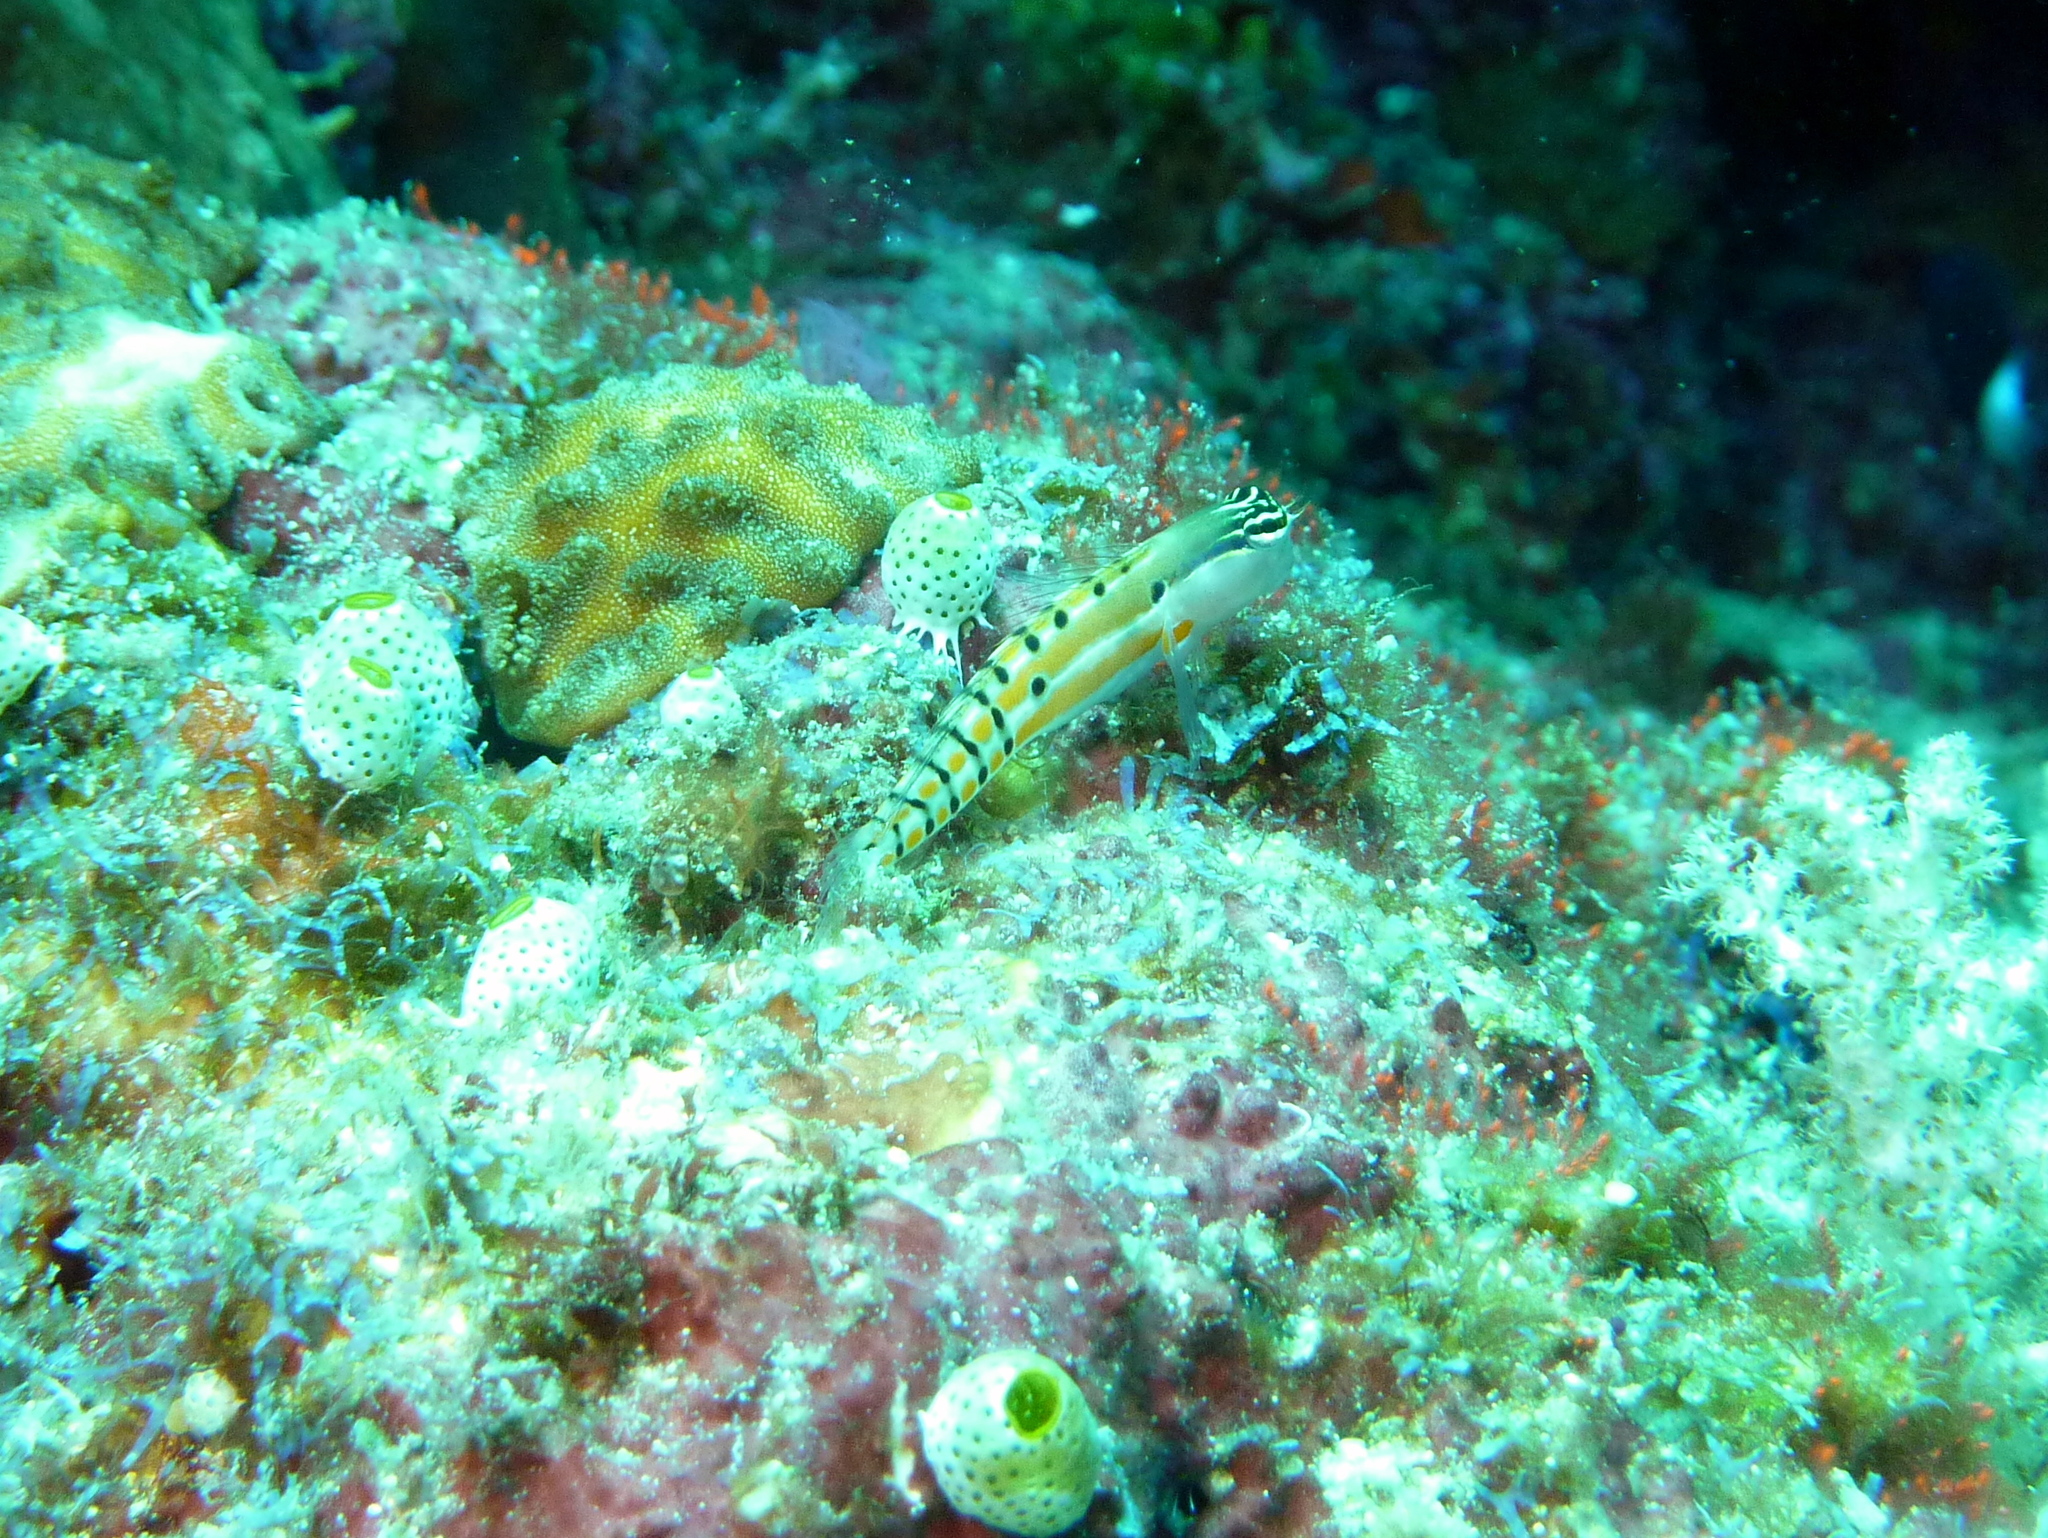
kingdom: Animalia
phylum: Chordata
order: Perciformes
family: Blenniidae
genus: Ecsenius
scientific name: Ecsenius axelrodi
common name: Axelrod's clown blenny
